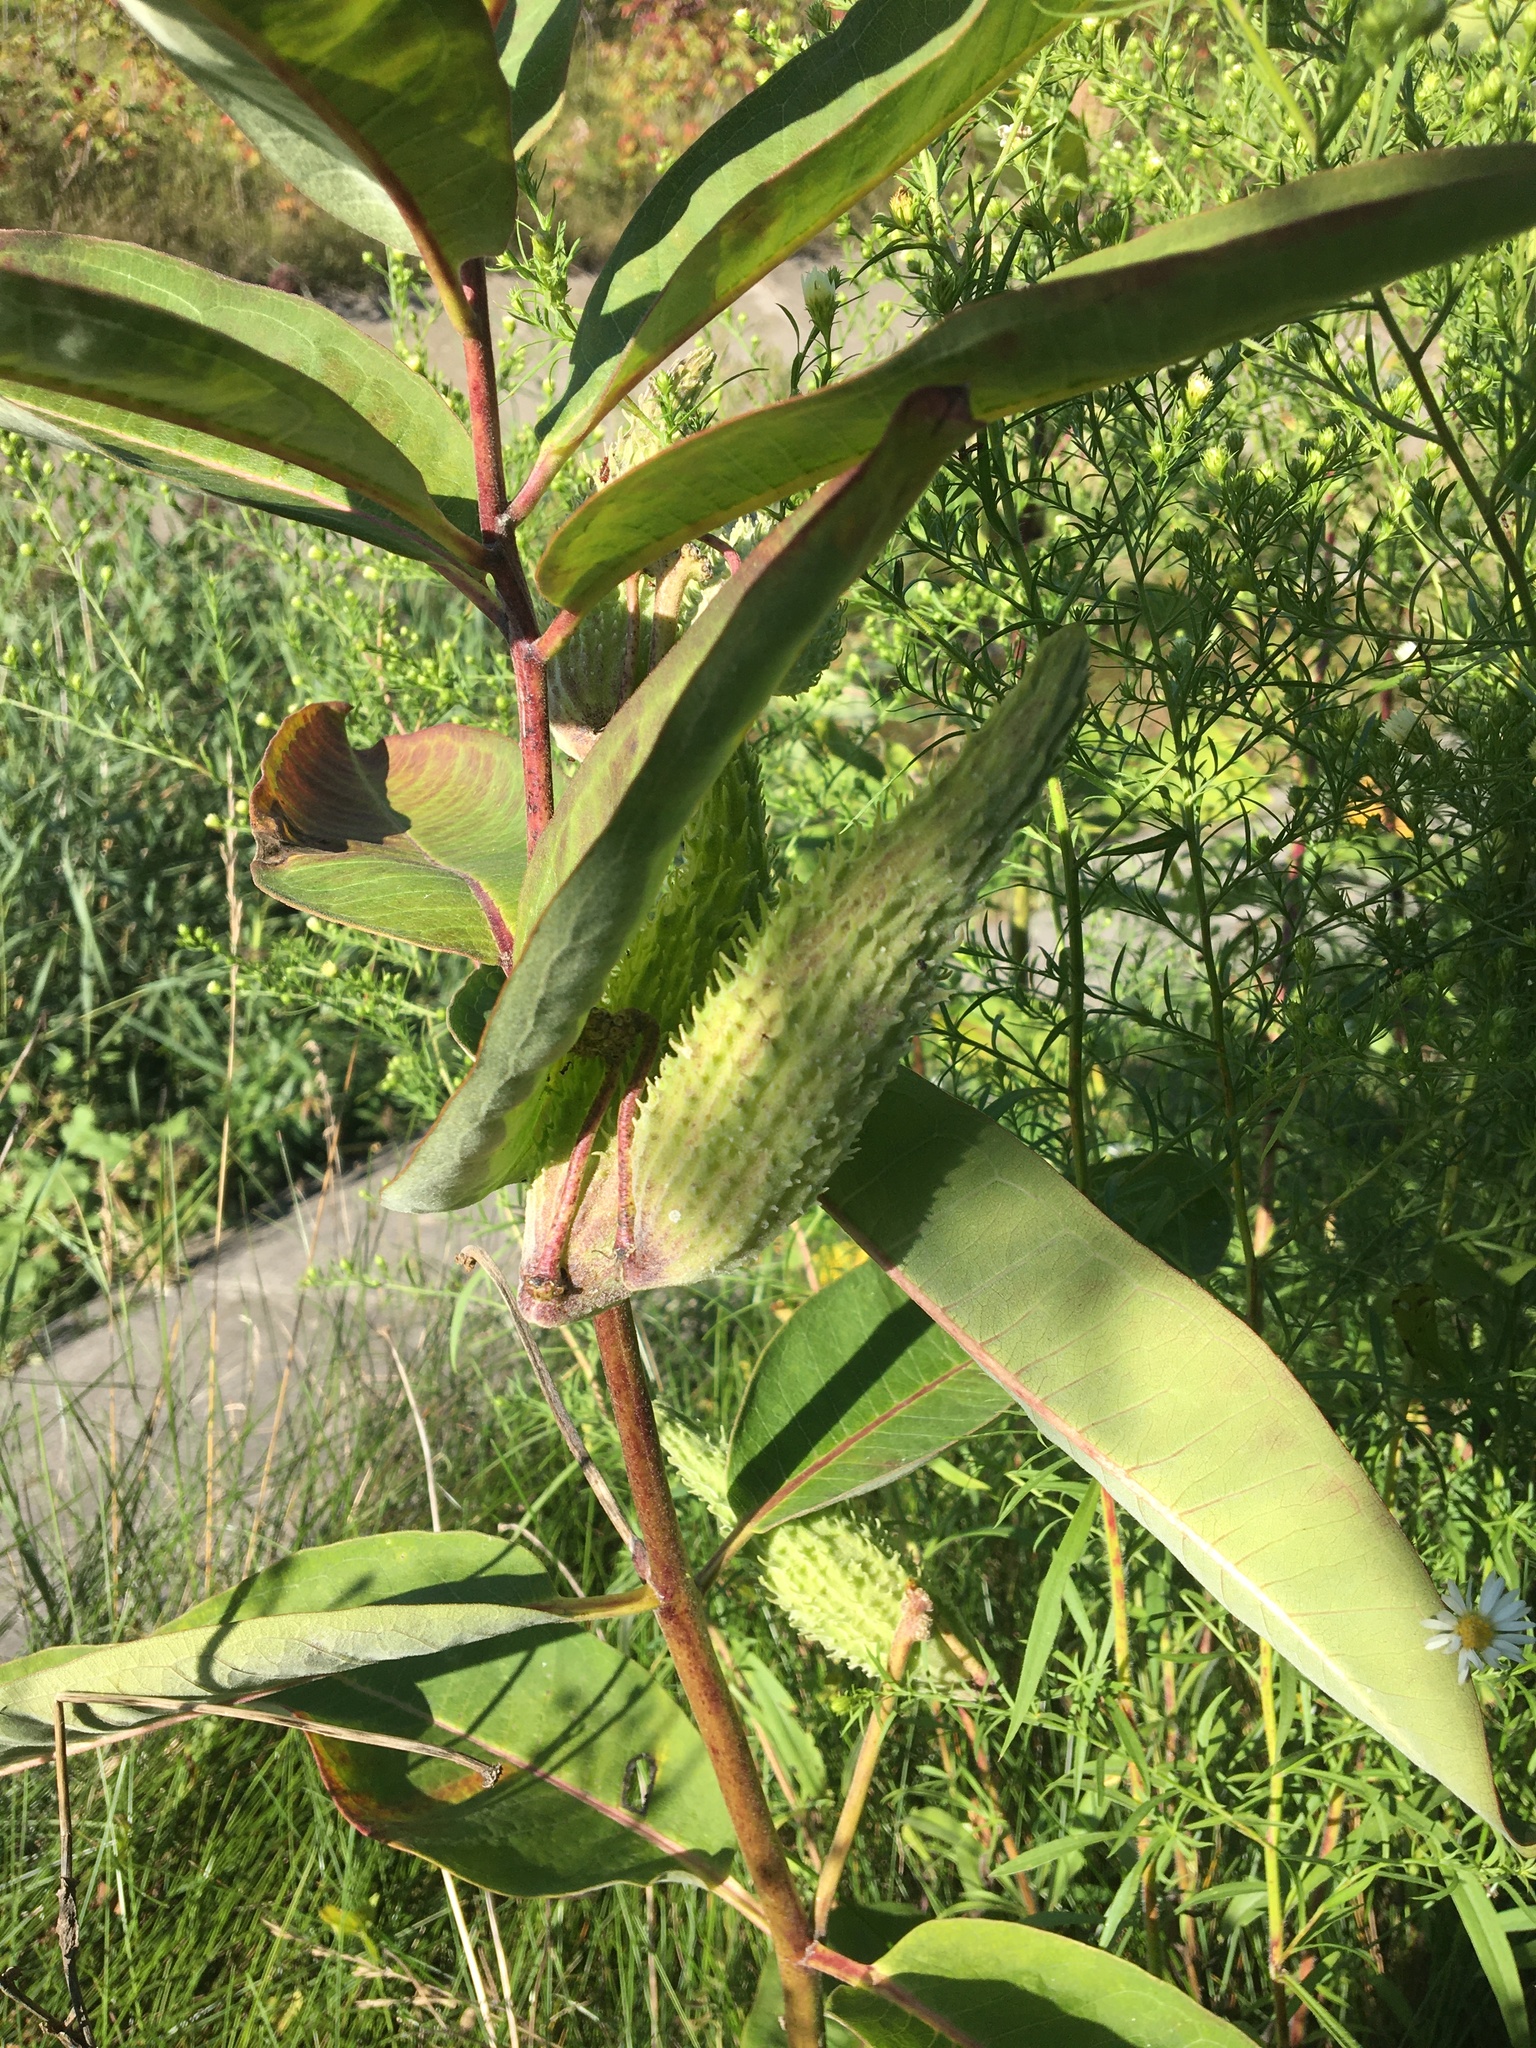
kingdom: Plantae
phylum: Tracheophyta
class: Magnoliopsida
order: Gentianales
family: Apocynaceae
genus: Asclepias
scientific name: Asclepias syriaca
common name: Common milkweed
